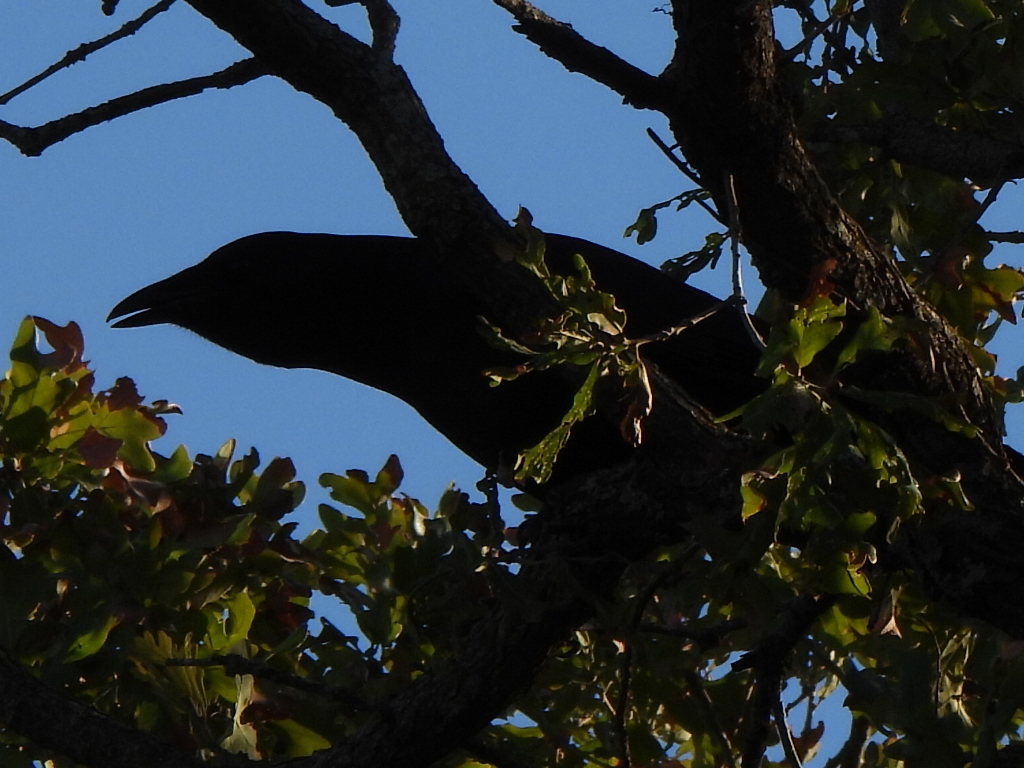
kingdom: Animalia
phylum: Chordata
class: Aves
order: Passeriformes
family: Corvidae
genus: Corvus
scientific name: Corvus brachyrhynchos
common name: American crow
